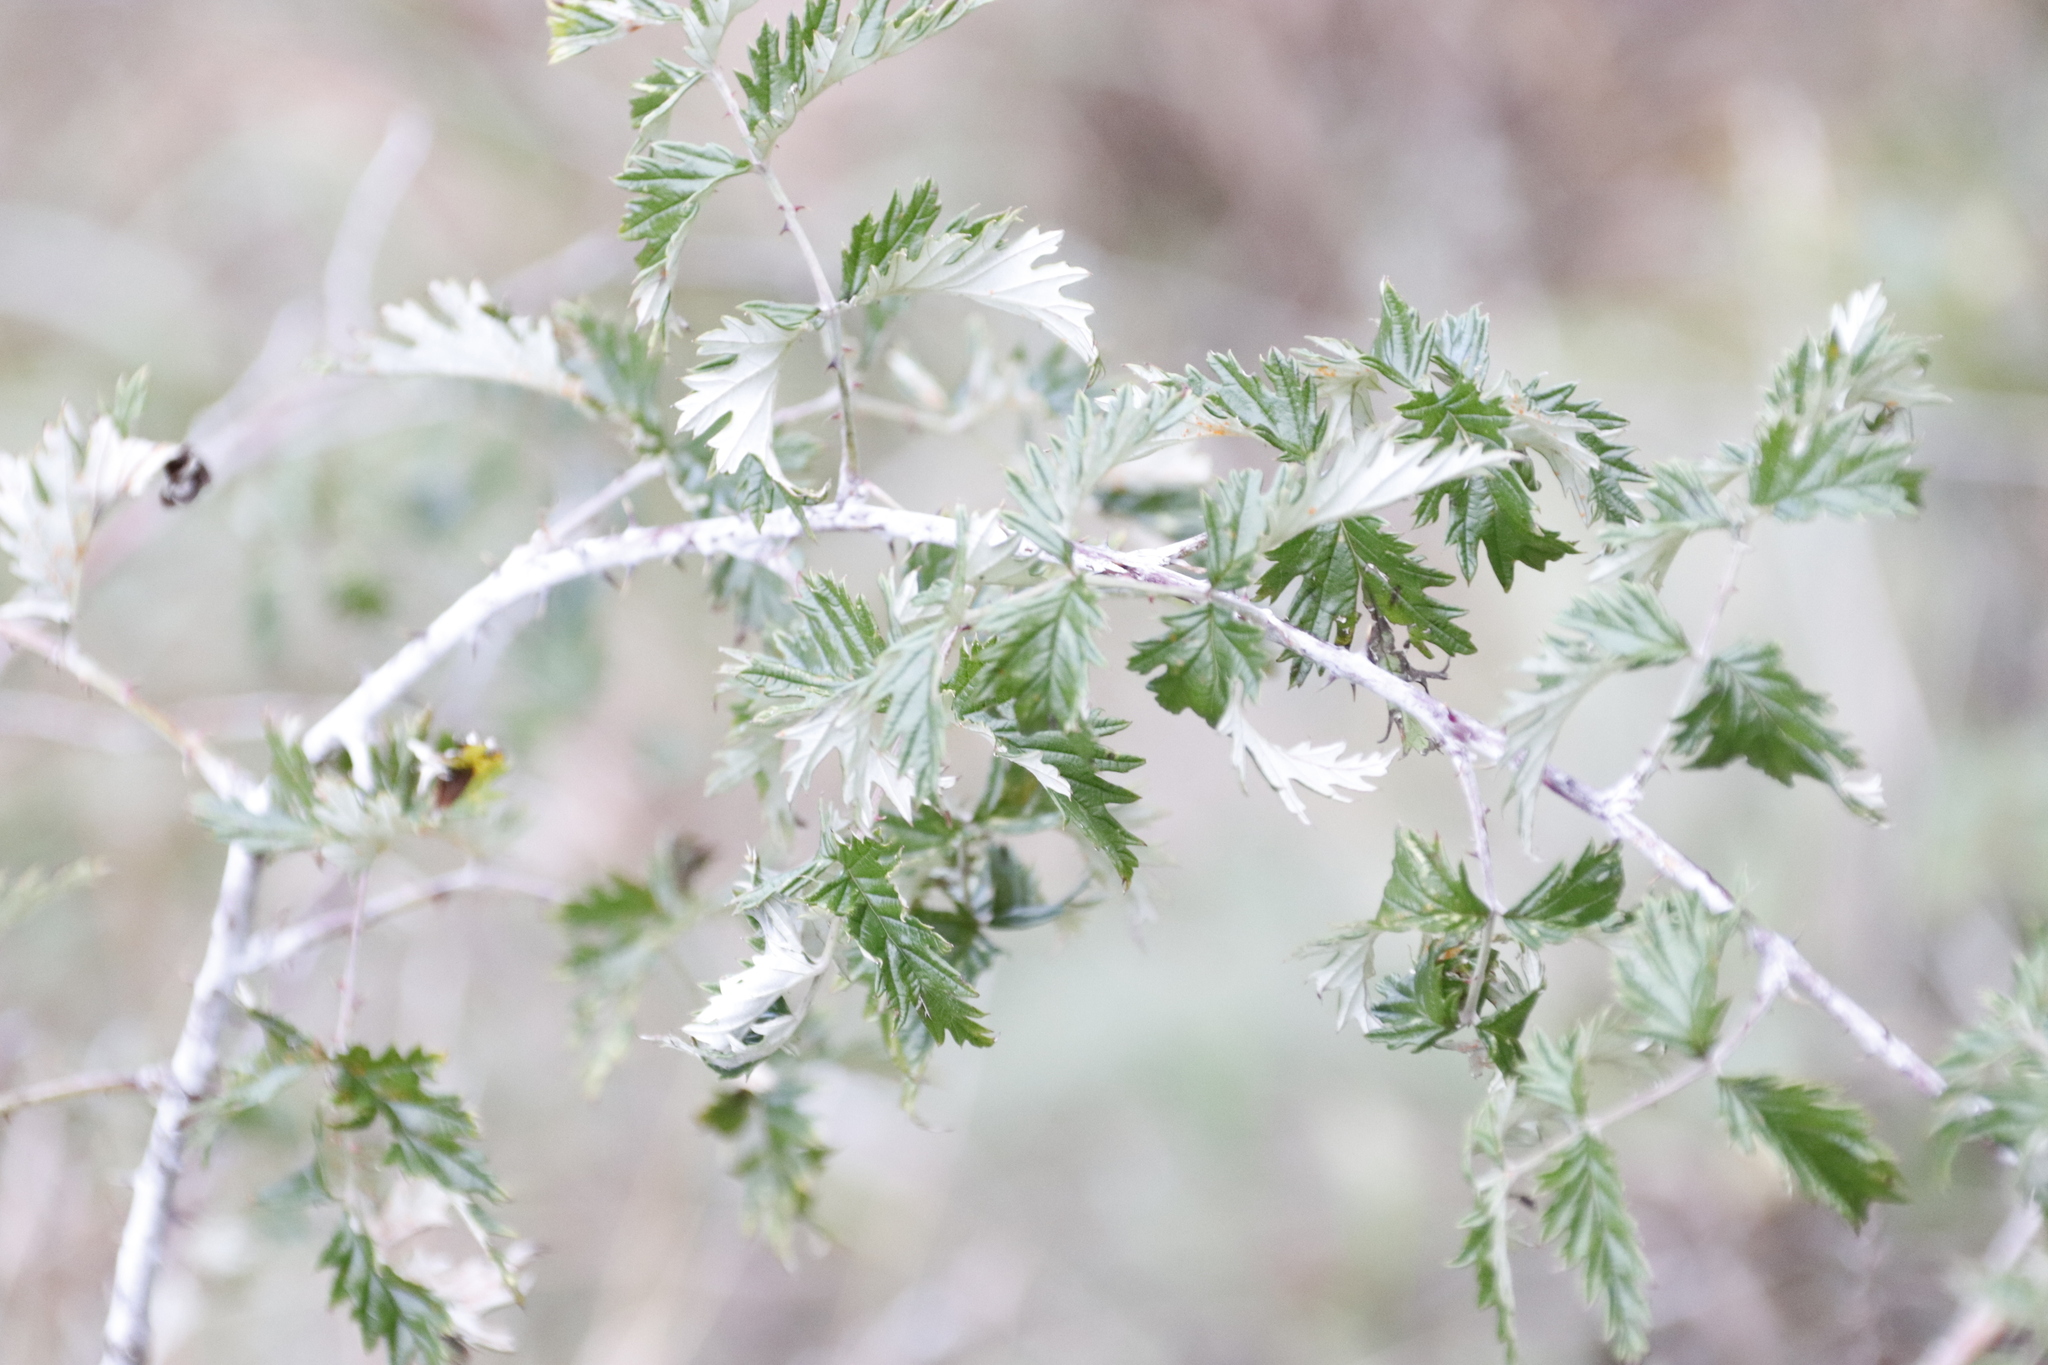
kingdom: Plantae
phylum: Tracheophyta
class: Magnoliopsida
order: Rosales
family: Rosaceae
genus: Rubus
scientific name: Rubus ludwigii
